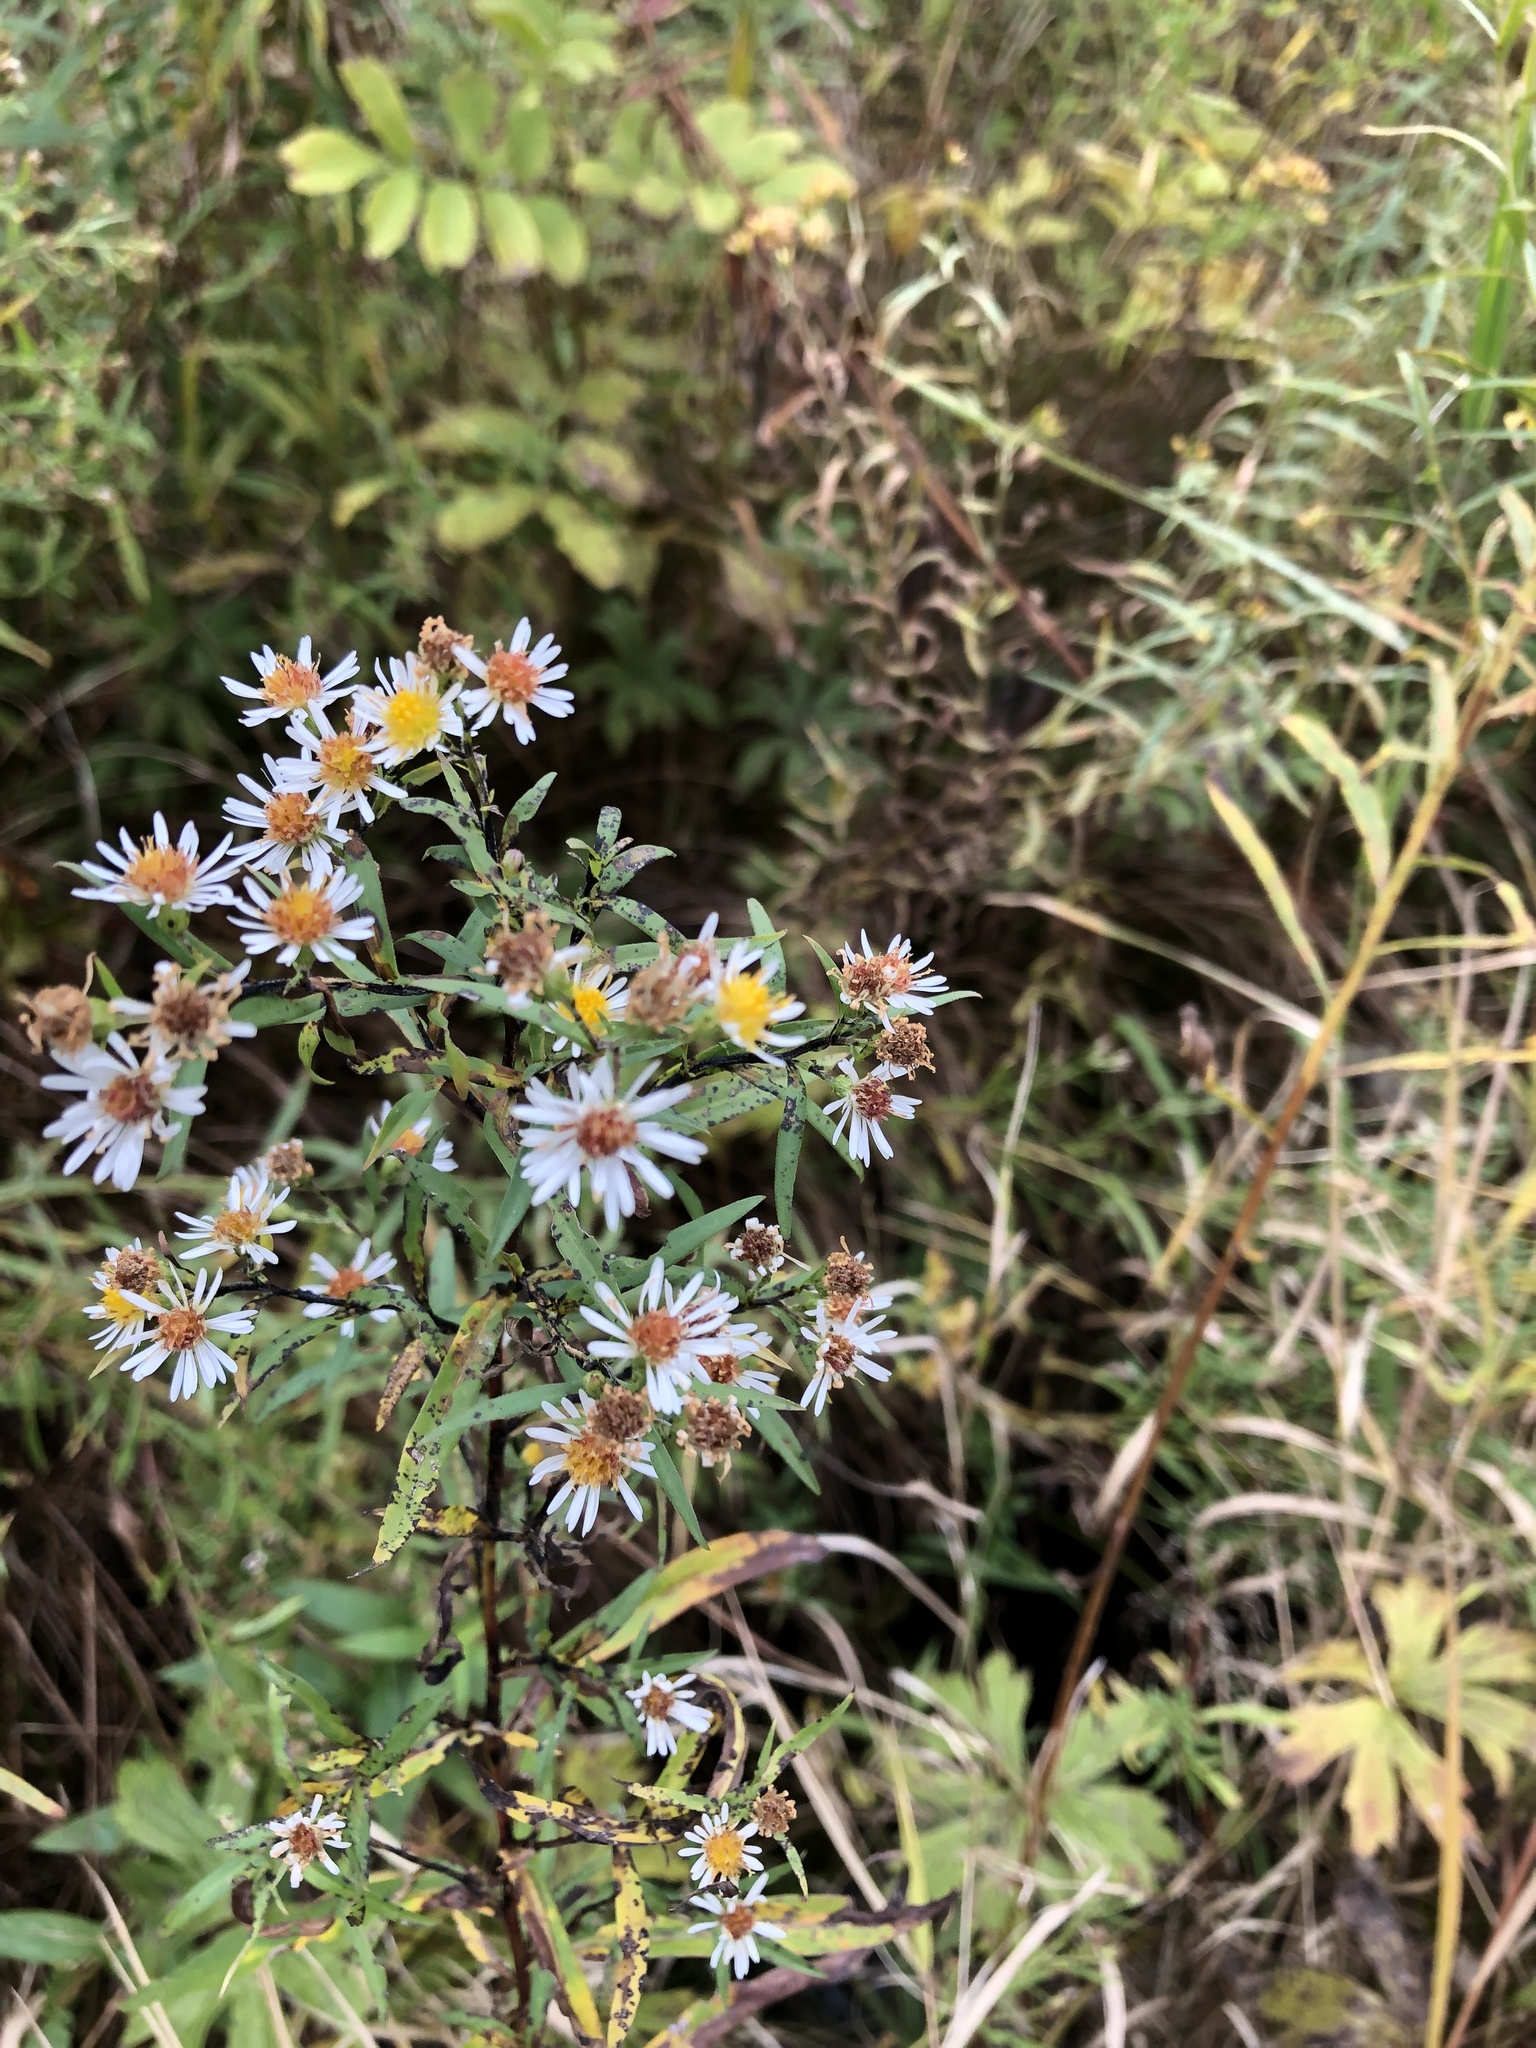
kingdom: Plantae
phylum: Tracheophyta
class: Magnoliopsida
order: Asterales
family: Asteraceae
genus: Symphyotrichum
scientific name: Symphyotrichum lanceolatum
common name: Panicled aster
